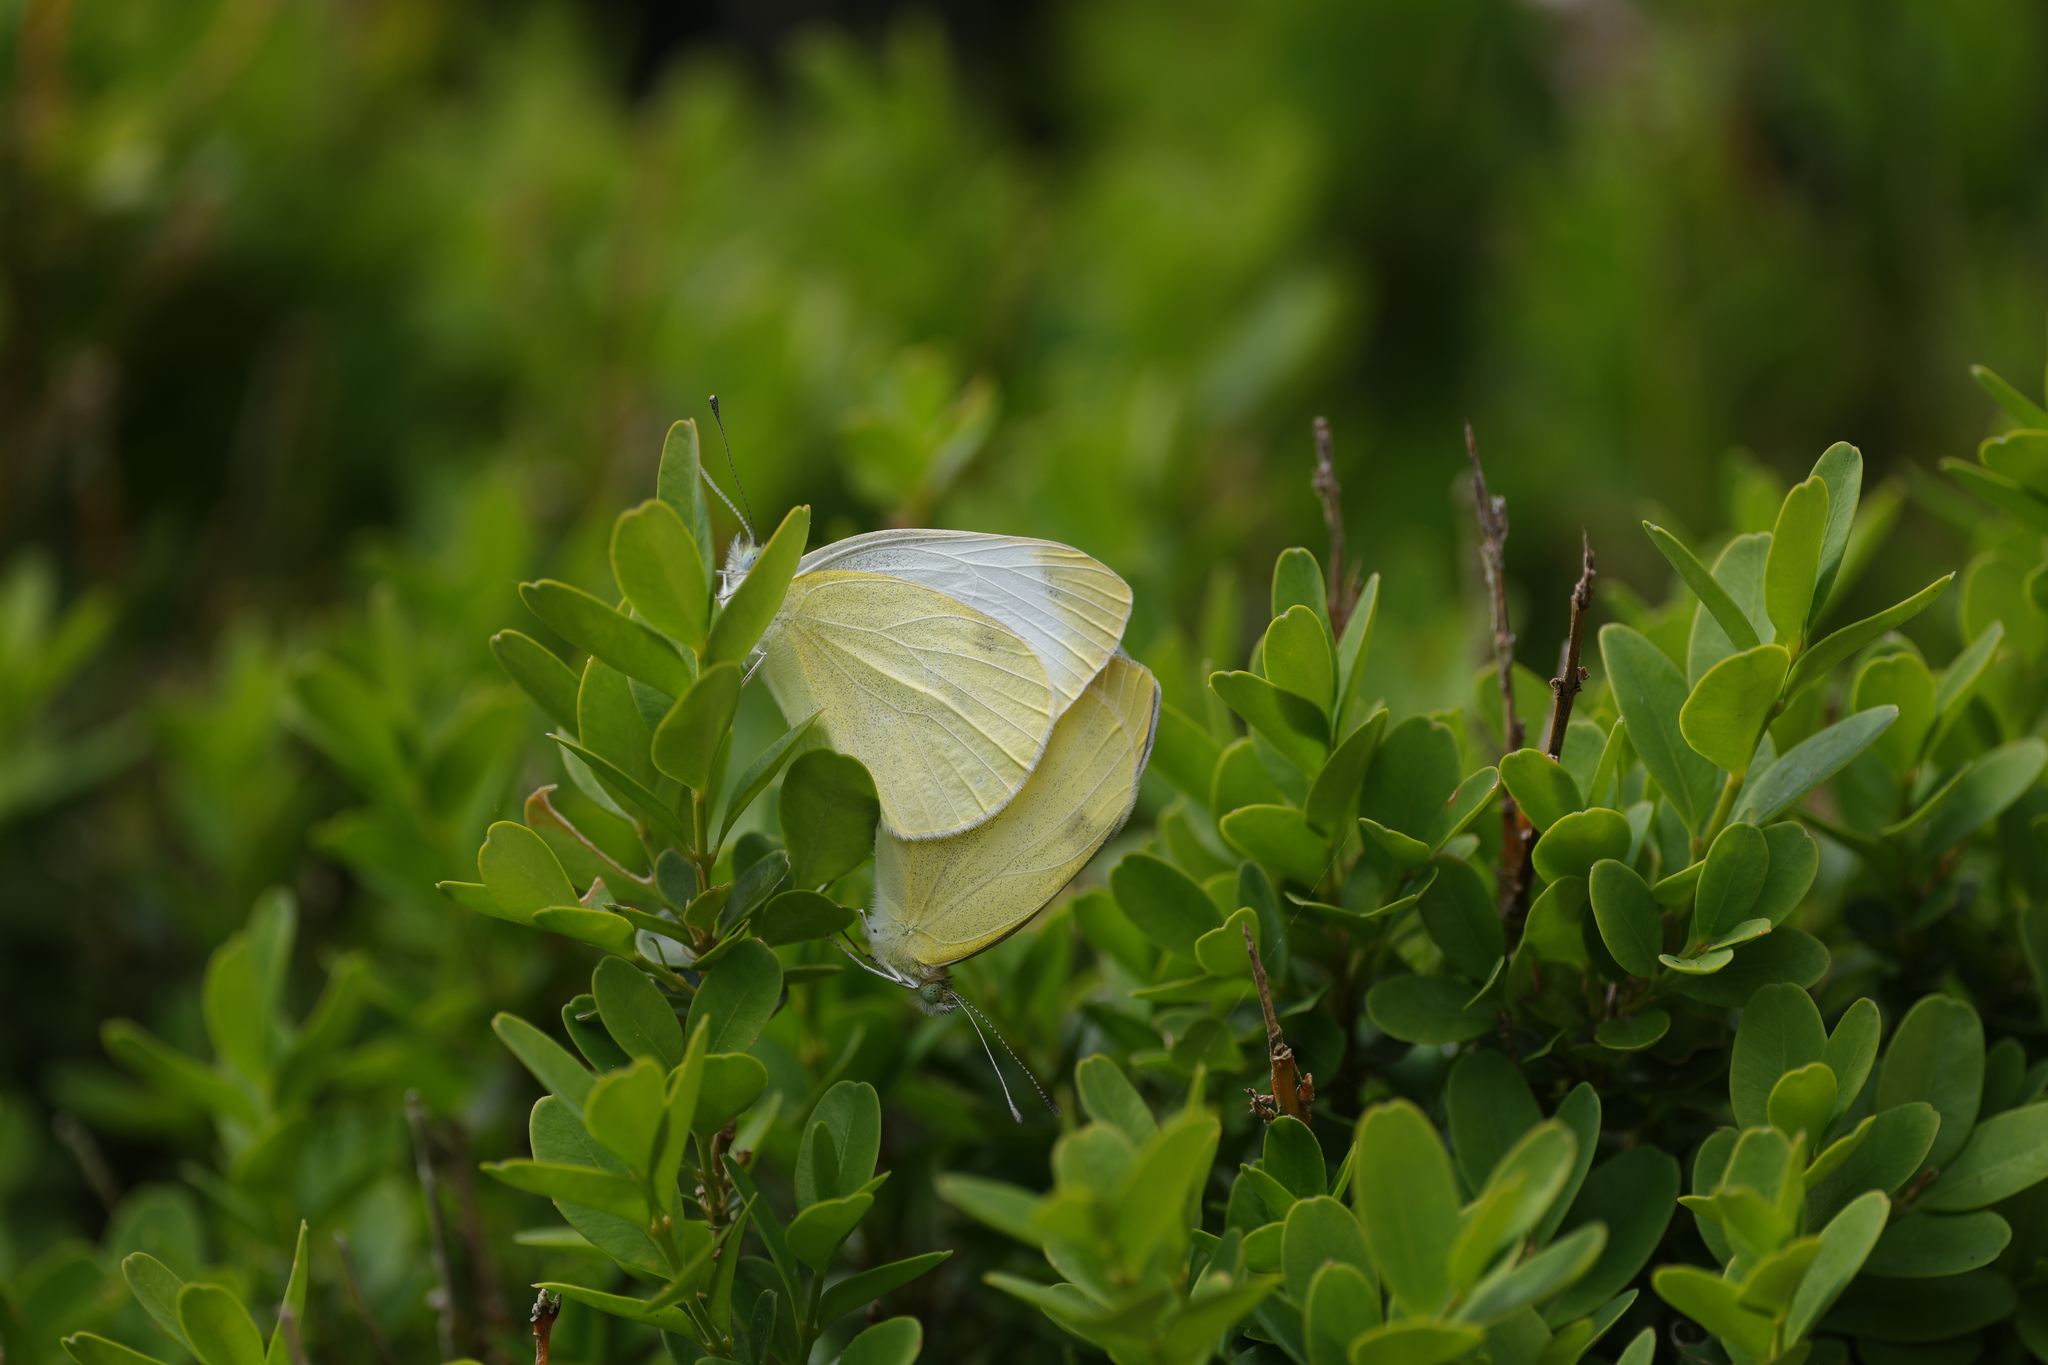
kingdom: Animalia
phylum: Arthropoda
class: Insecta
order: Lepidoptera
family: Pieridae
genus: Pieris
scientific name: Pieris mannii
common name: Southern small white
